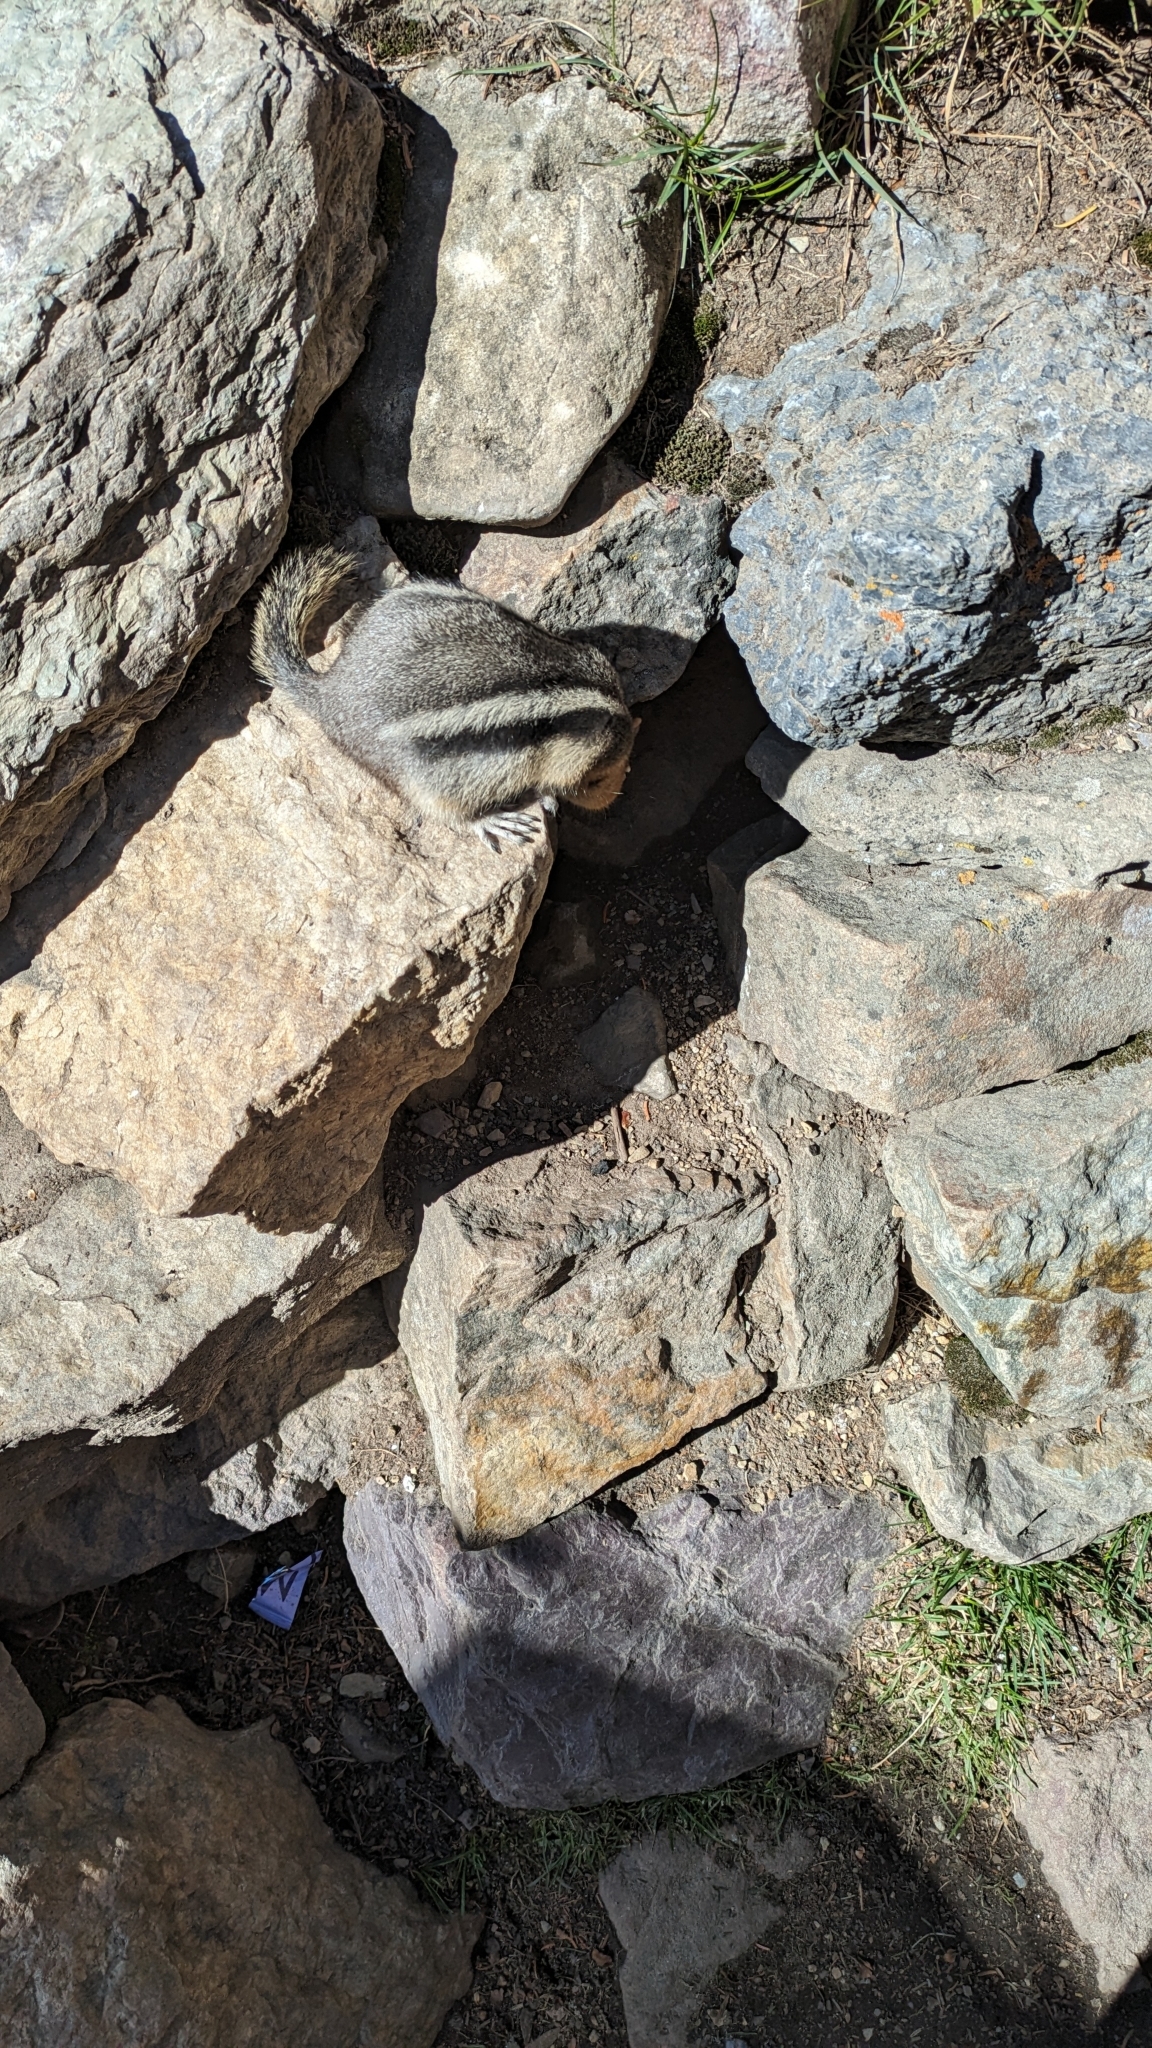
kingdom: Animalia
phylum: Chordata
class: Mammalia
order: Rodentia
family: Sciuridae
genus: Callospermophilus
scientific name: Callospermophilus lateralis
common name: Golden-mantled ground squirrel
